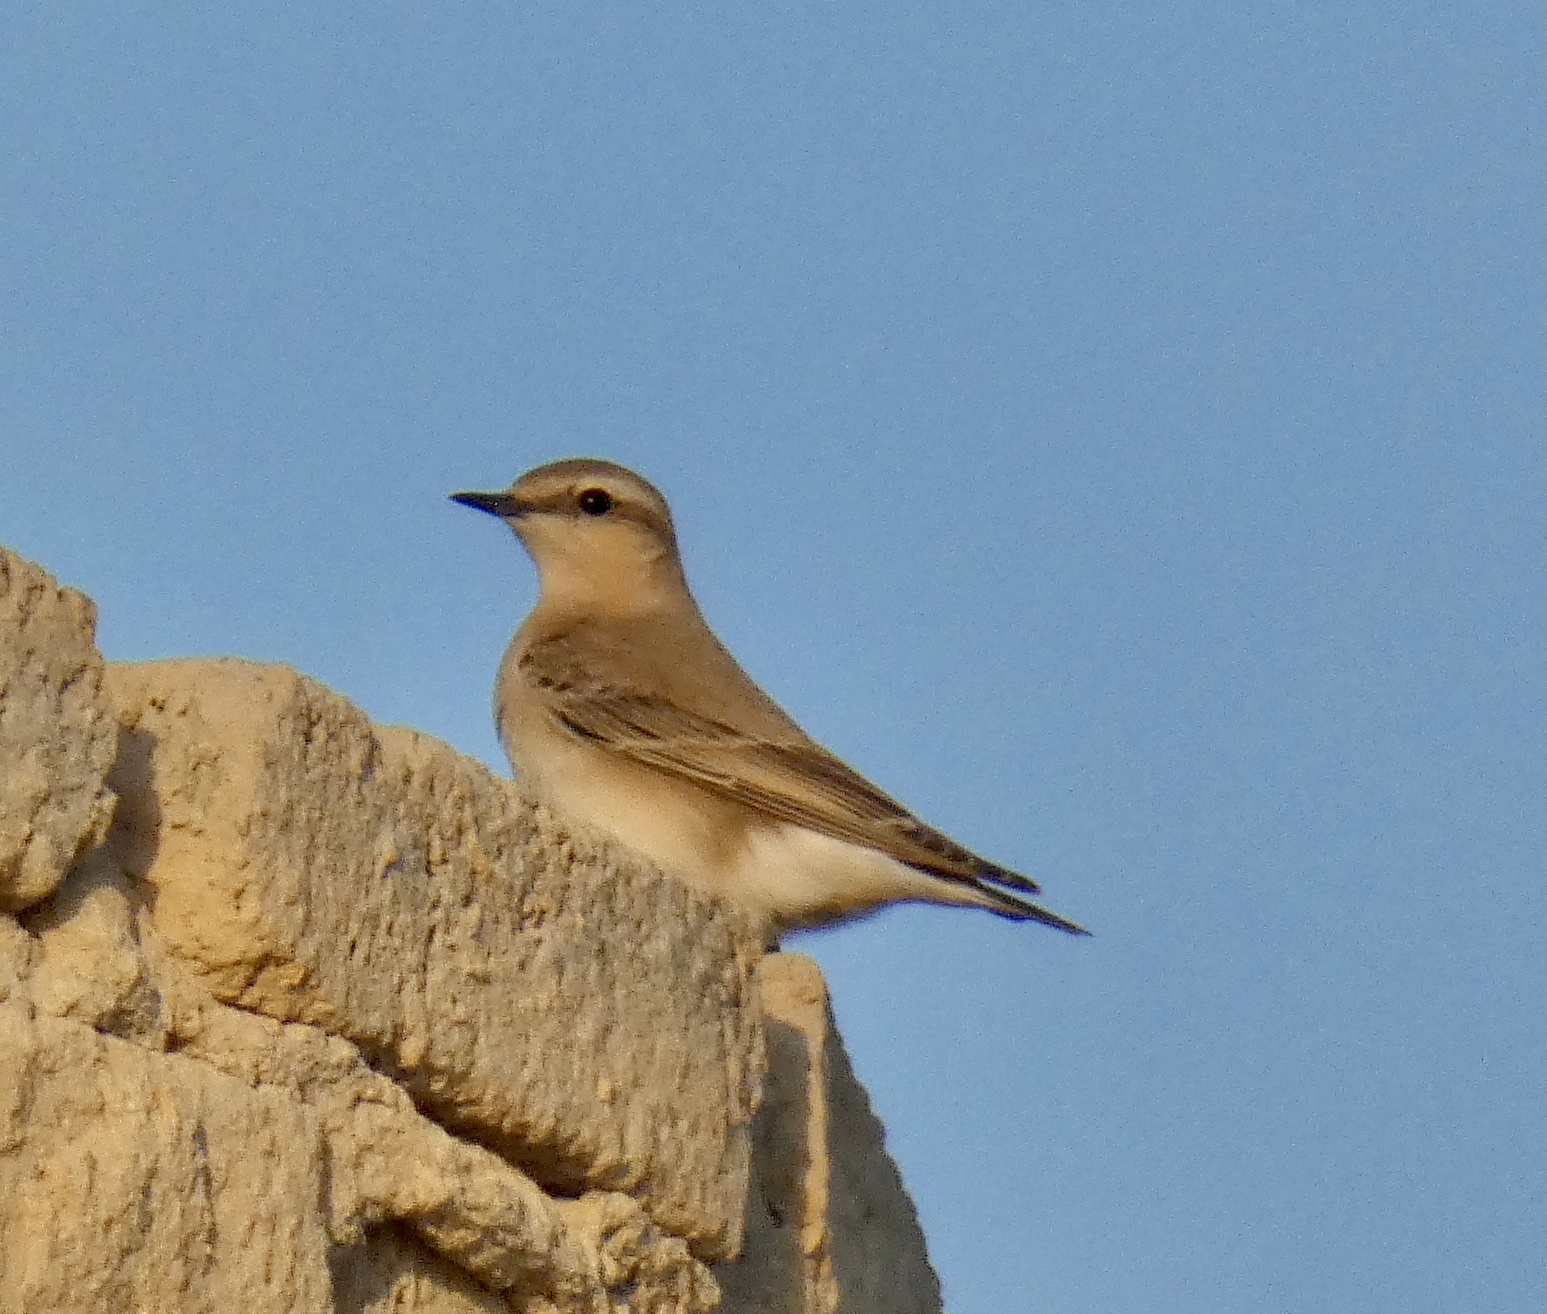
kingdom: Animalia
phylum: Chordata
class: Aves
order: Passeriformes
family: Muscicapidae
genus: Oenanthe
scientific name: Oenanthe isabellina
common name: Isabelline wheatear
